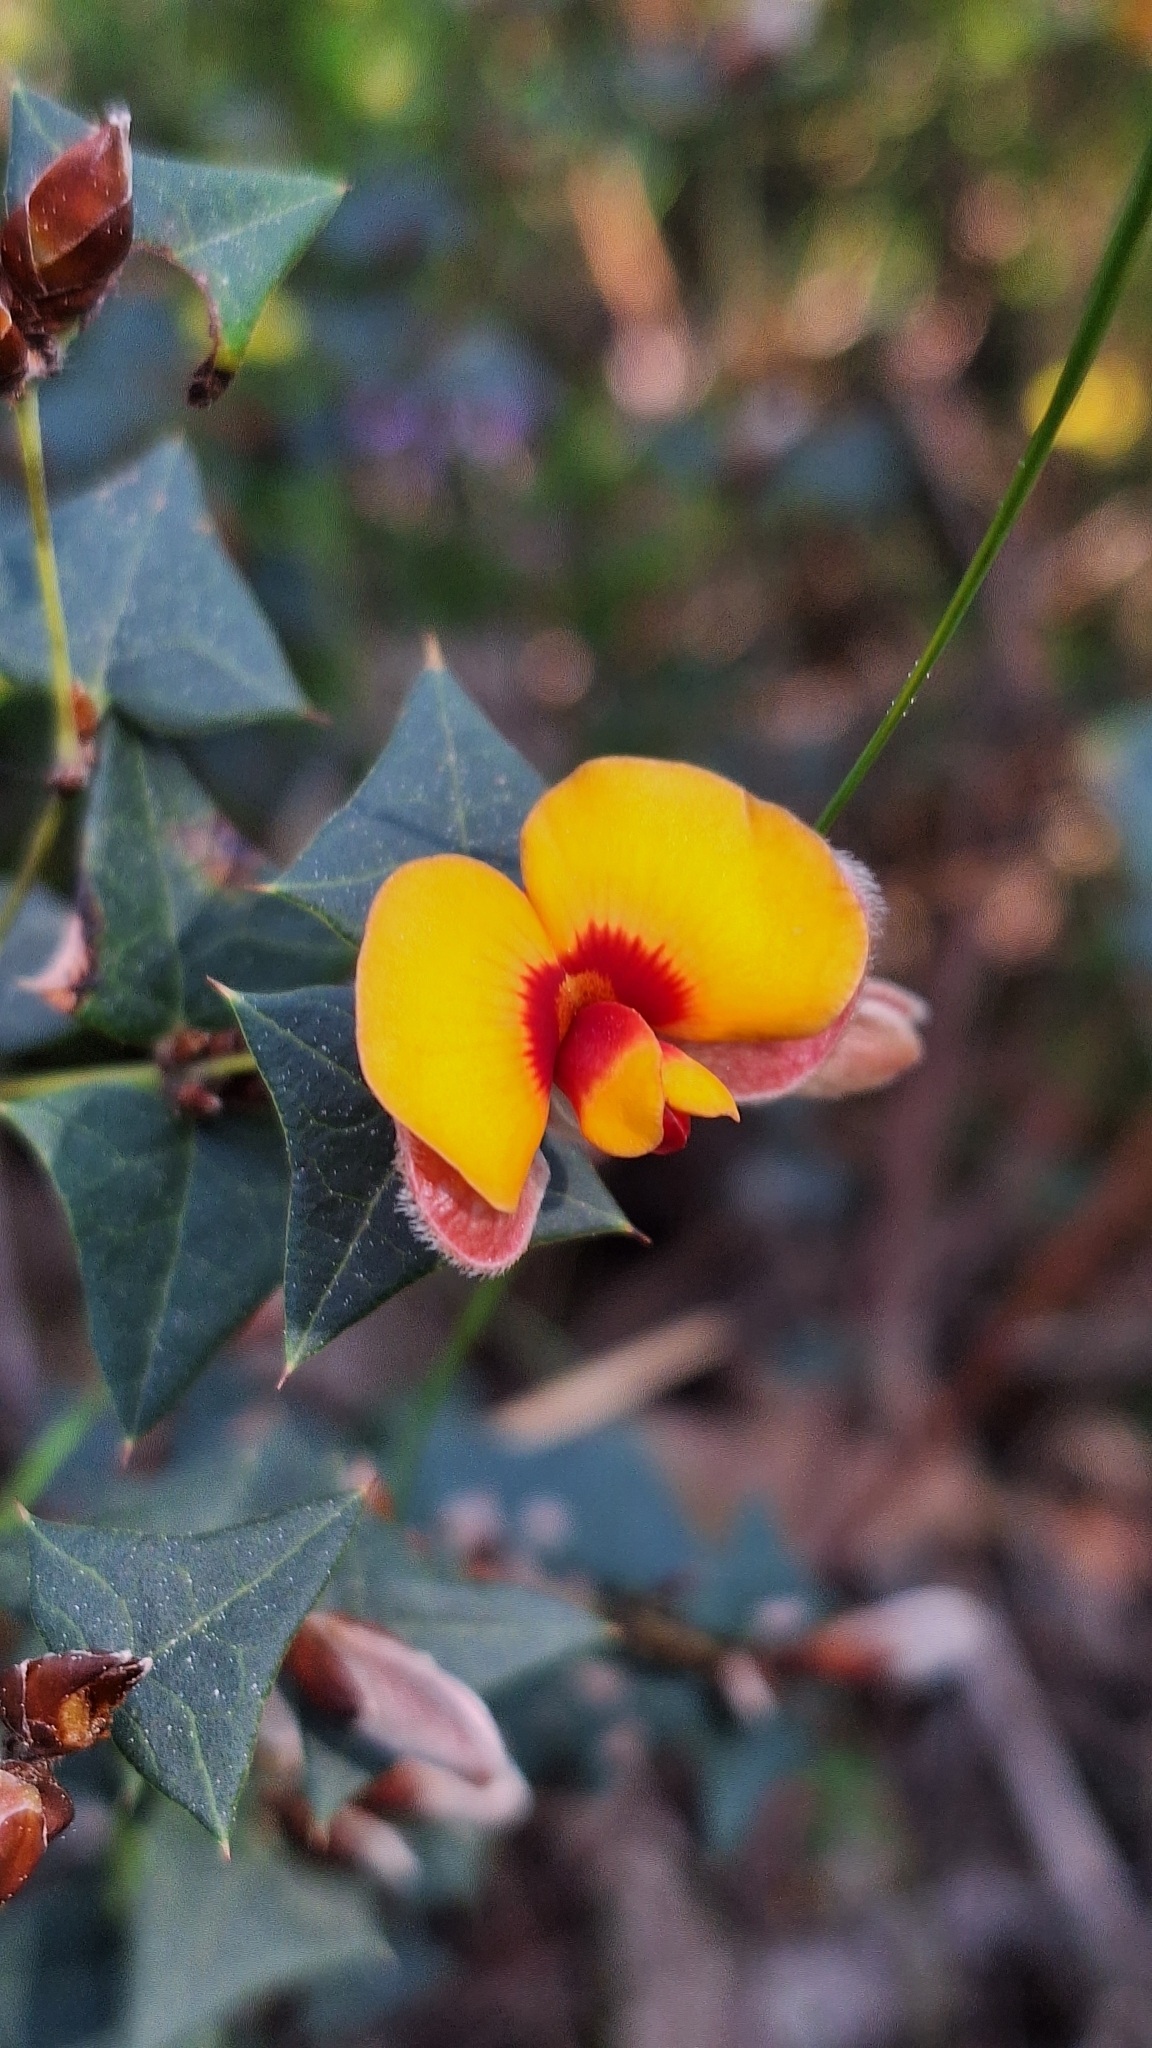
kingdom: Plantae
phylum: Tracheophyta
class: Magnoliopsida
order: Fabales
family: Fabaceae
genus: Platylobium
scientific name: Platylobium obtusangulum
